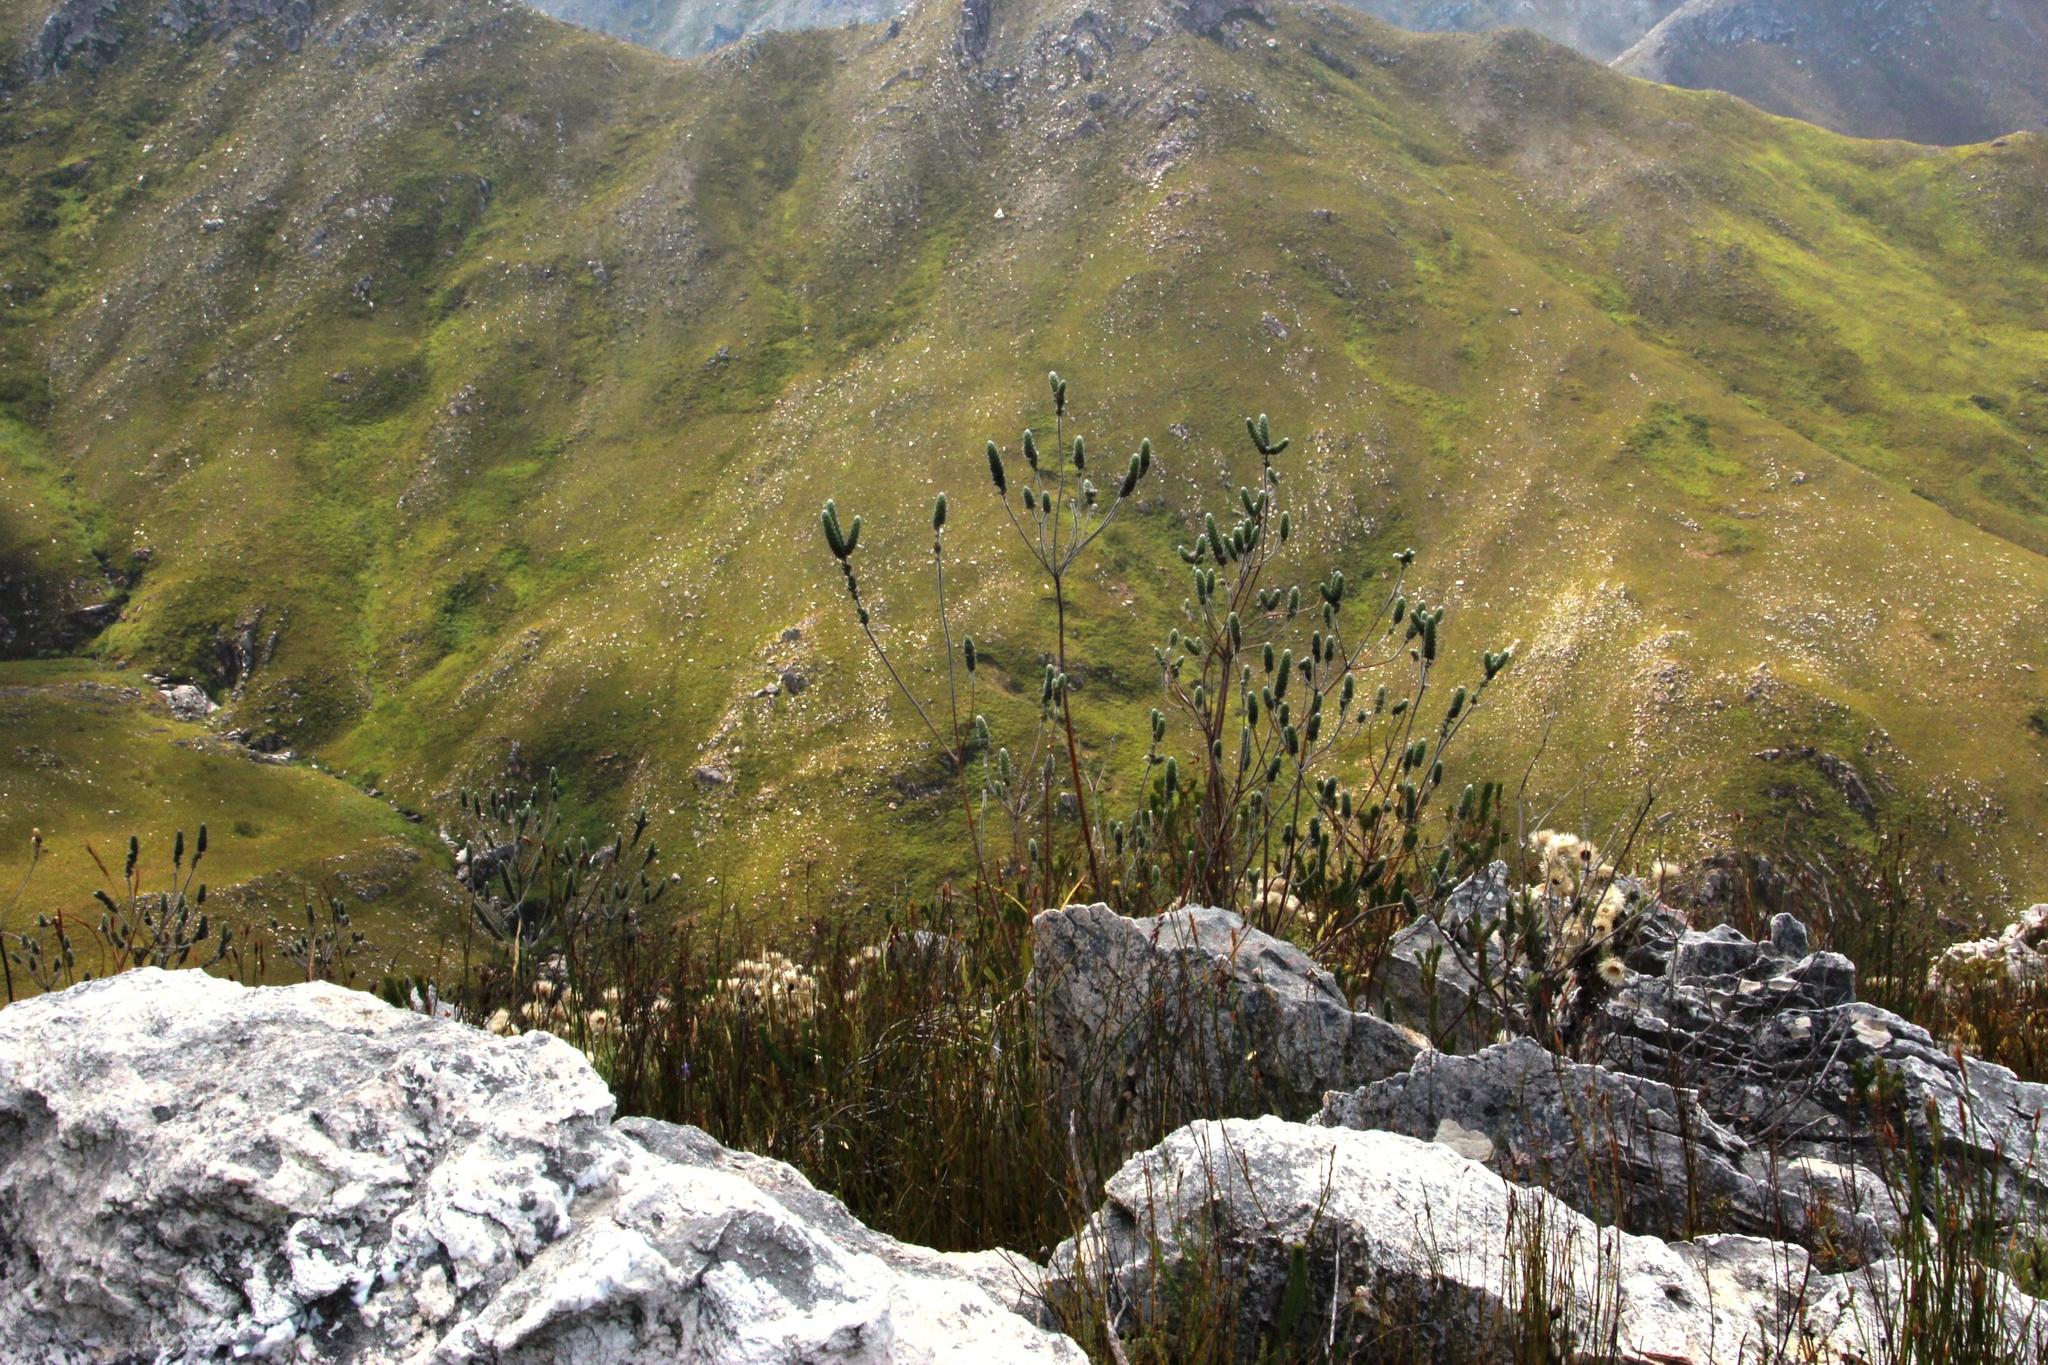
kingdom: Plantae
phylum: Tracheophyta
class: Magnoliopsida
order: Fabales
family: Fabaceae
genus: Liparia
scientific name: Liparia vestita
